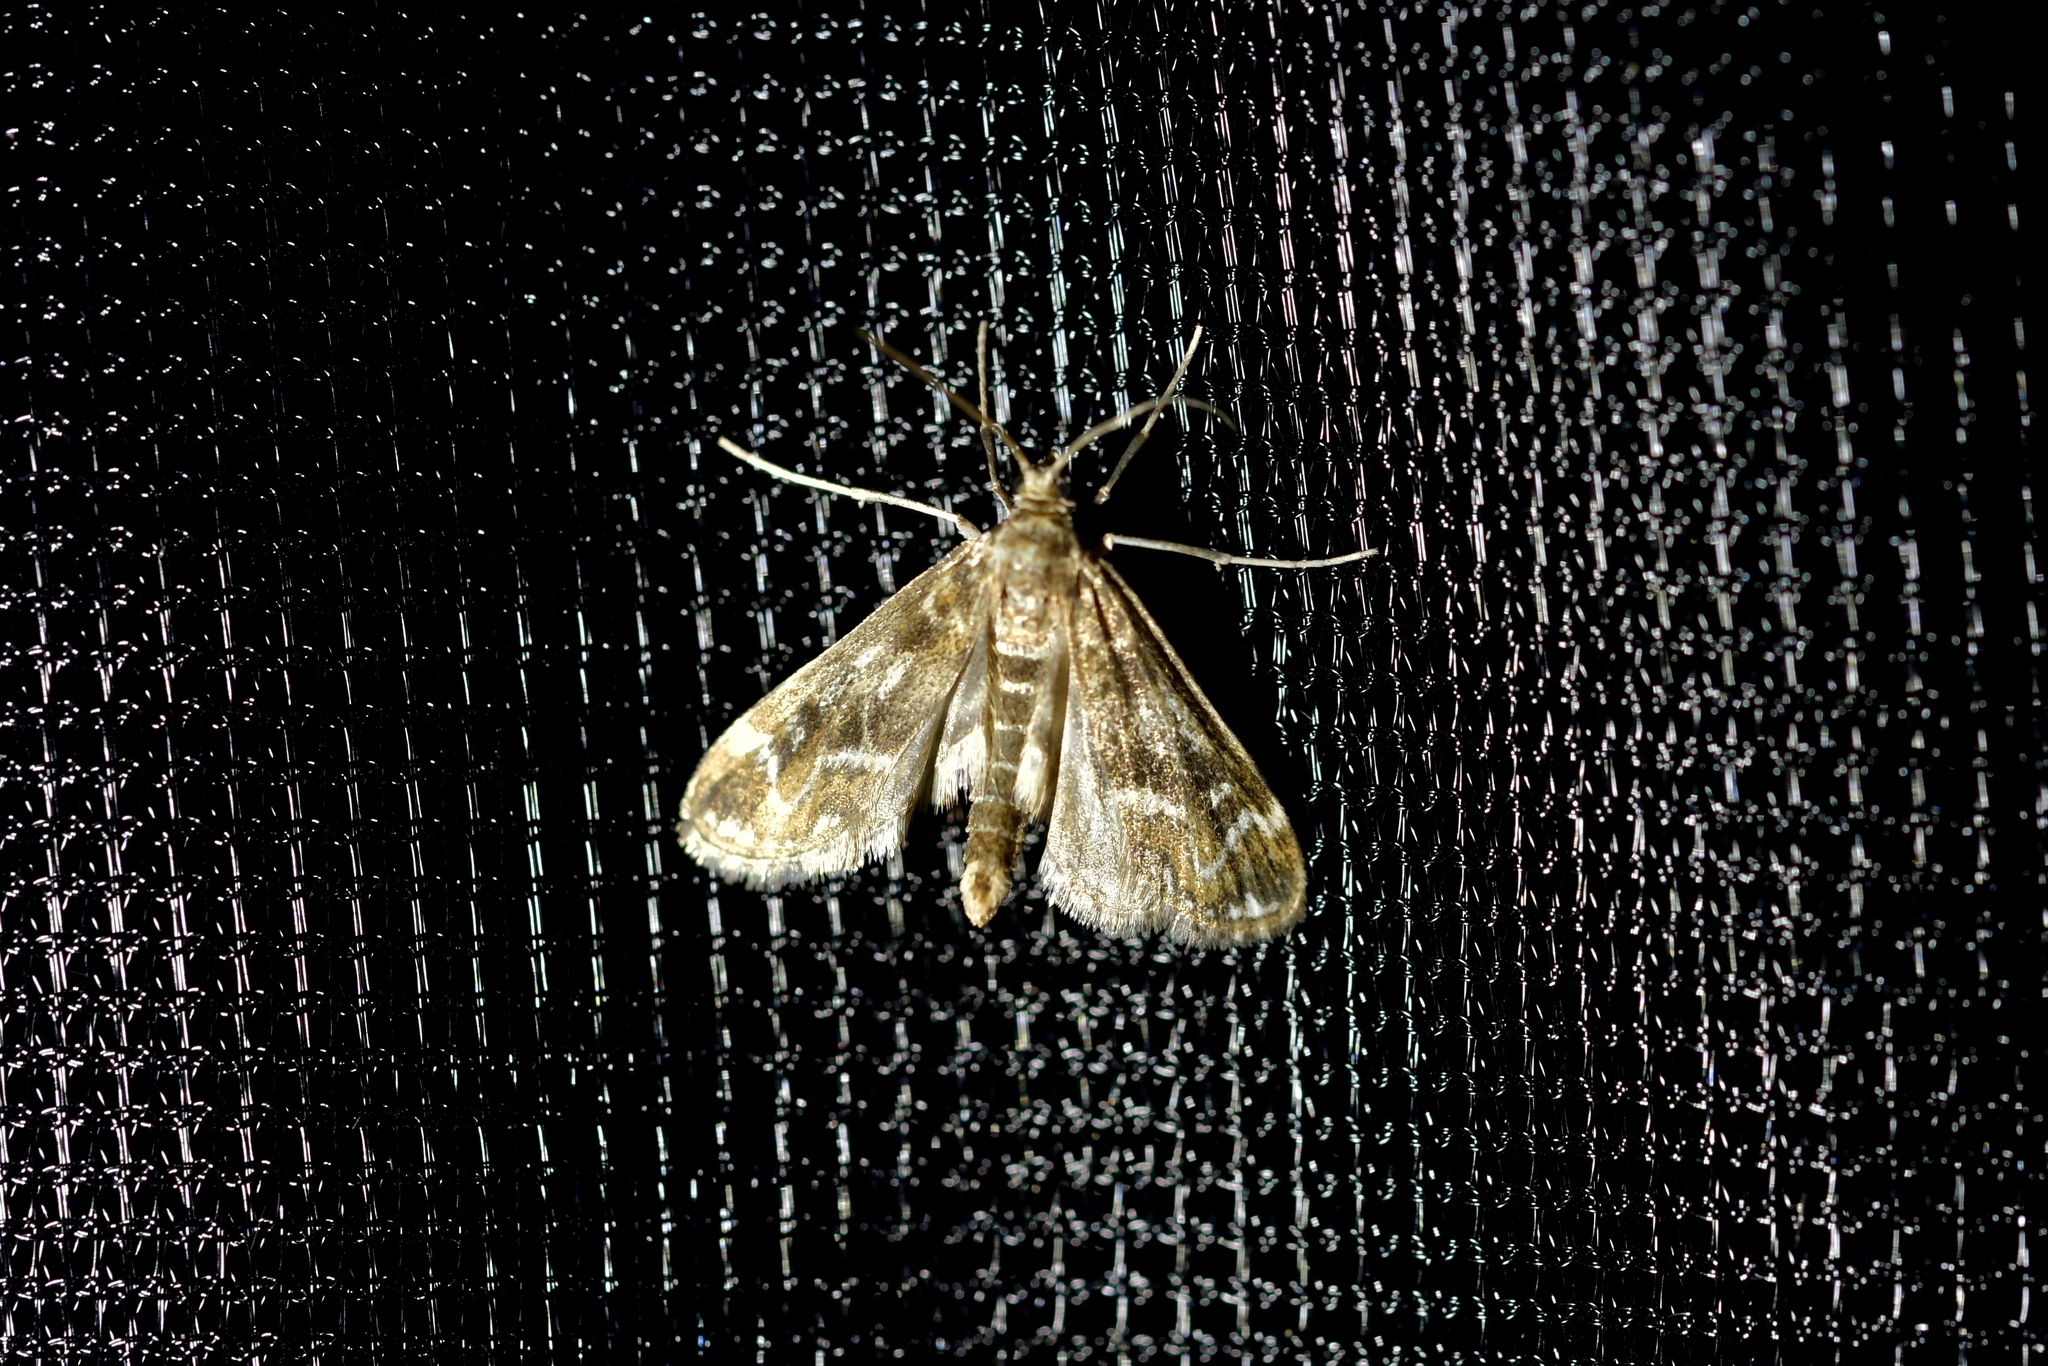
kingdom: Animalia
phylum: Arthropoda
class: Insecta
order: Lepidoptera
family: Crambidae
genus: Hygraula
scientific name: Hygraula nitens
